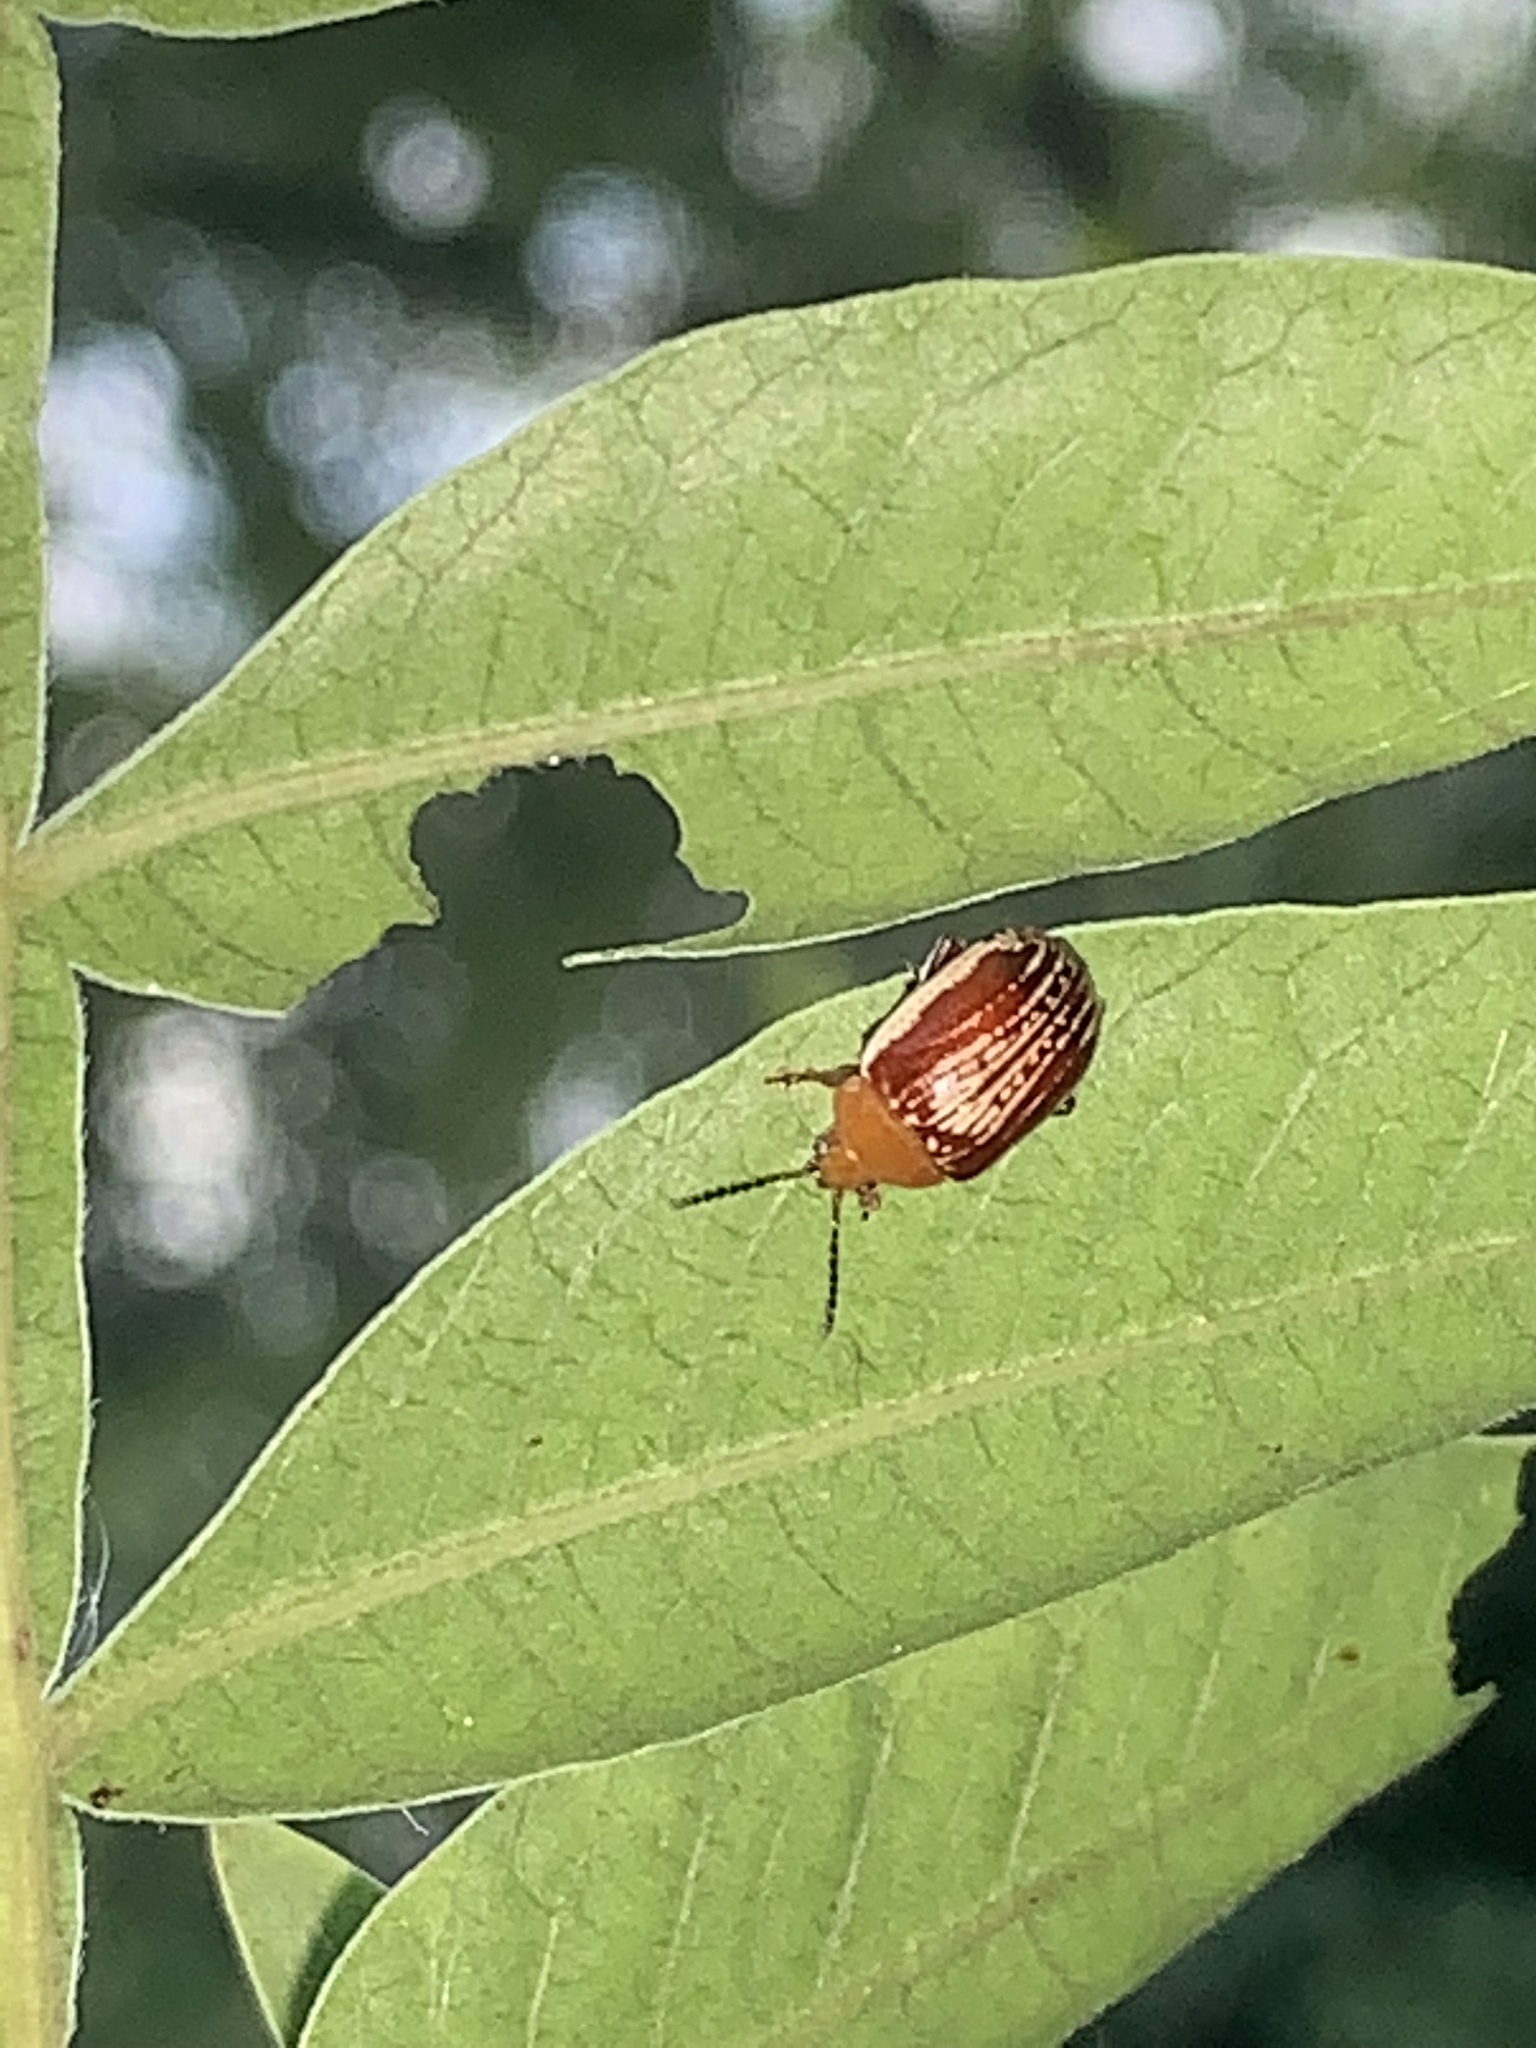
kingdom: Animalia
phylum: Arthropoda
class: Insecta
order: Coleoptera
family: Chrysomelidae
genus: Blepharida
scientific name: Blepharida rhois
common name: Sumac flea beetle
